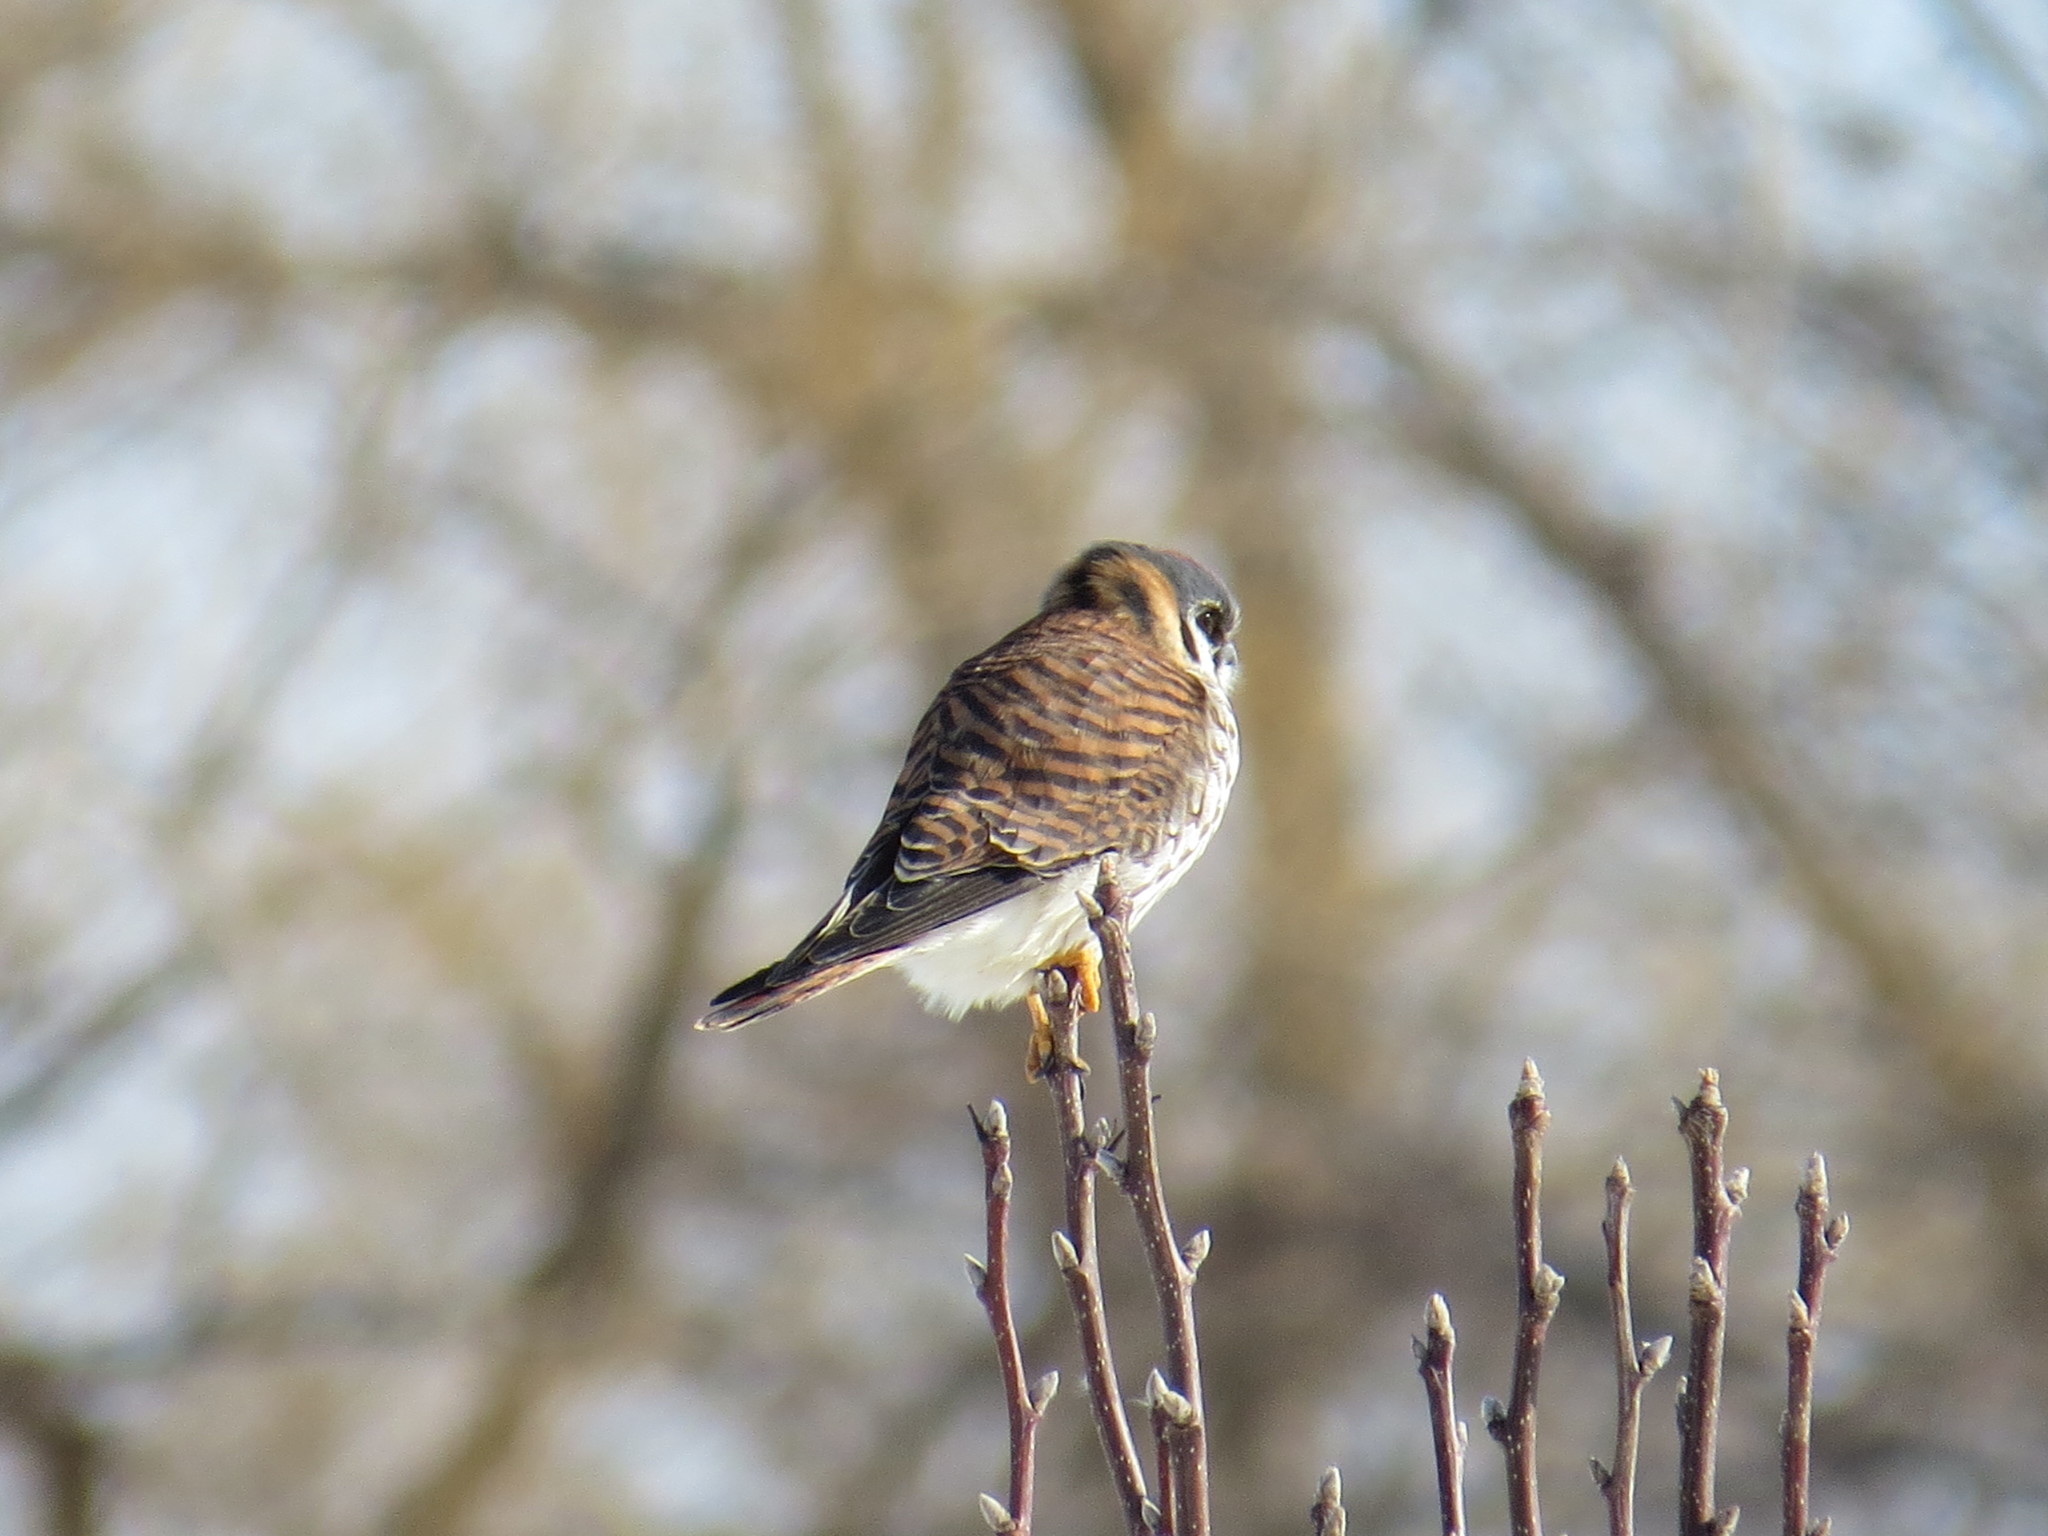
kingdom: Animalia
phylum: Chordata
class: Aves
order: Falconiformes
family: Falconidae
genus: Falco
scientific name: Falco sparverius
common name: American kestrel
